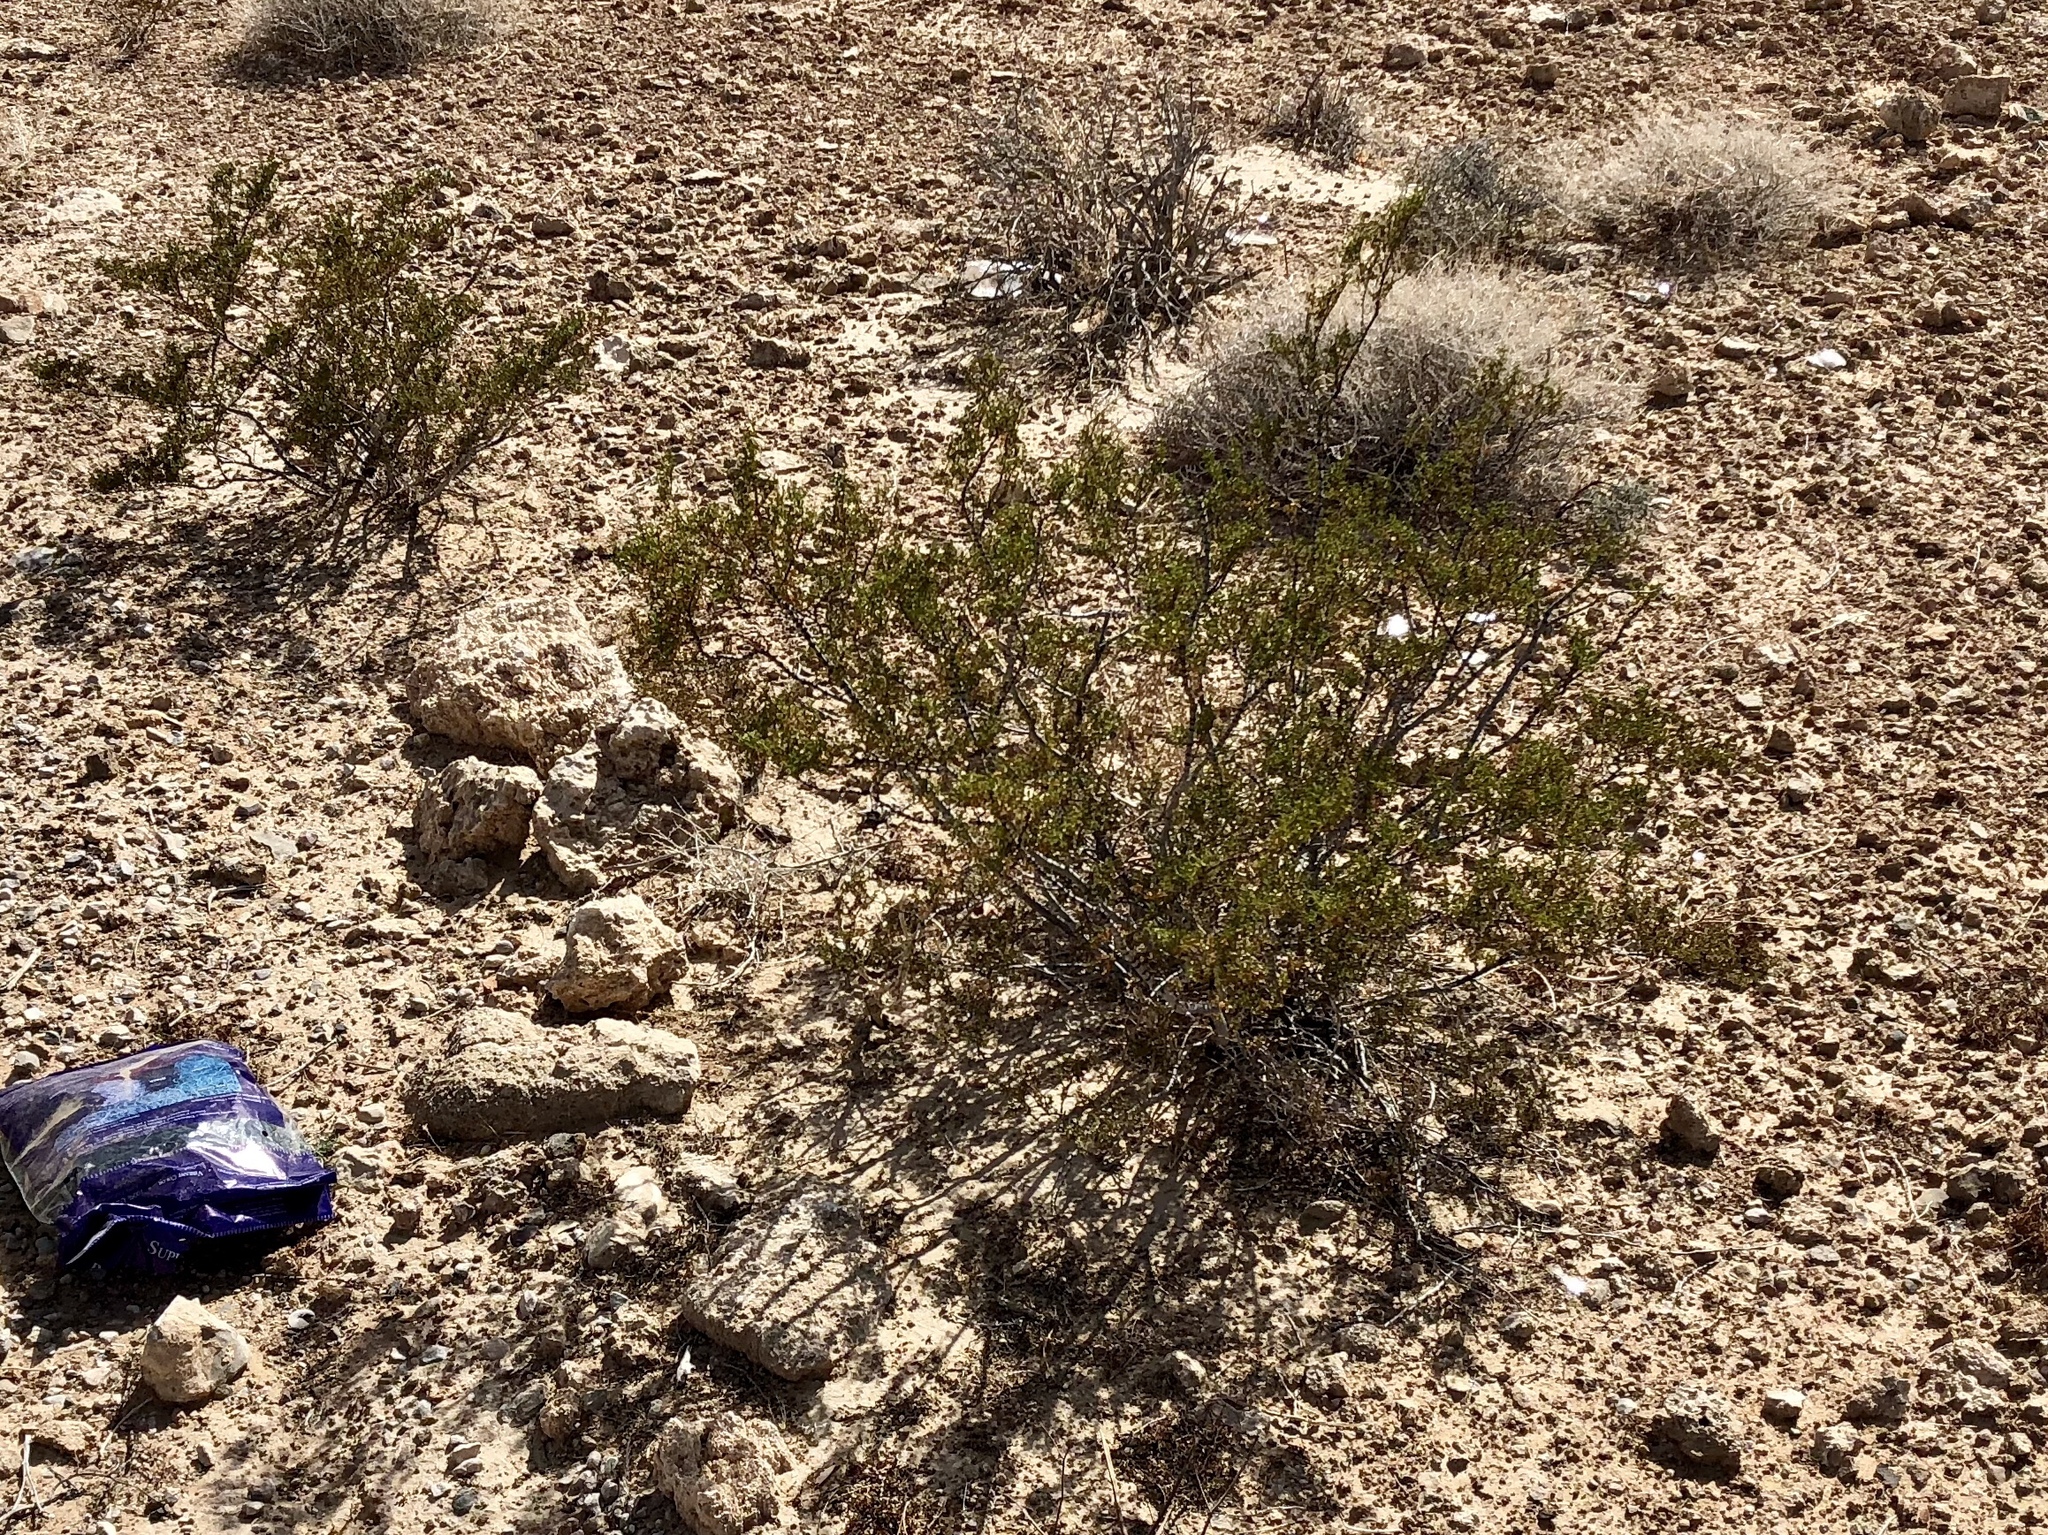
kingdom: Plantae
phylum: Tracheophyta
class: Magnoliopsida
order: Zygophyllales
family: Zygophyllaceae
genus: Larrea
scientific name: Larrea tridentata
